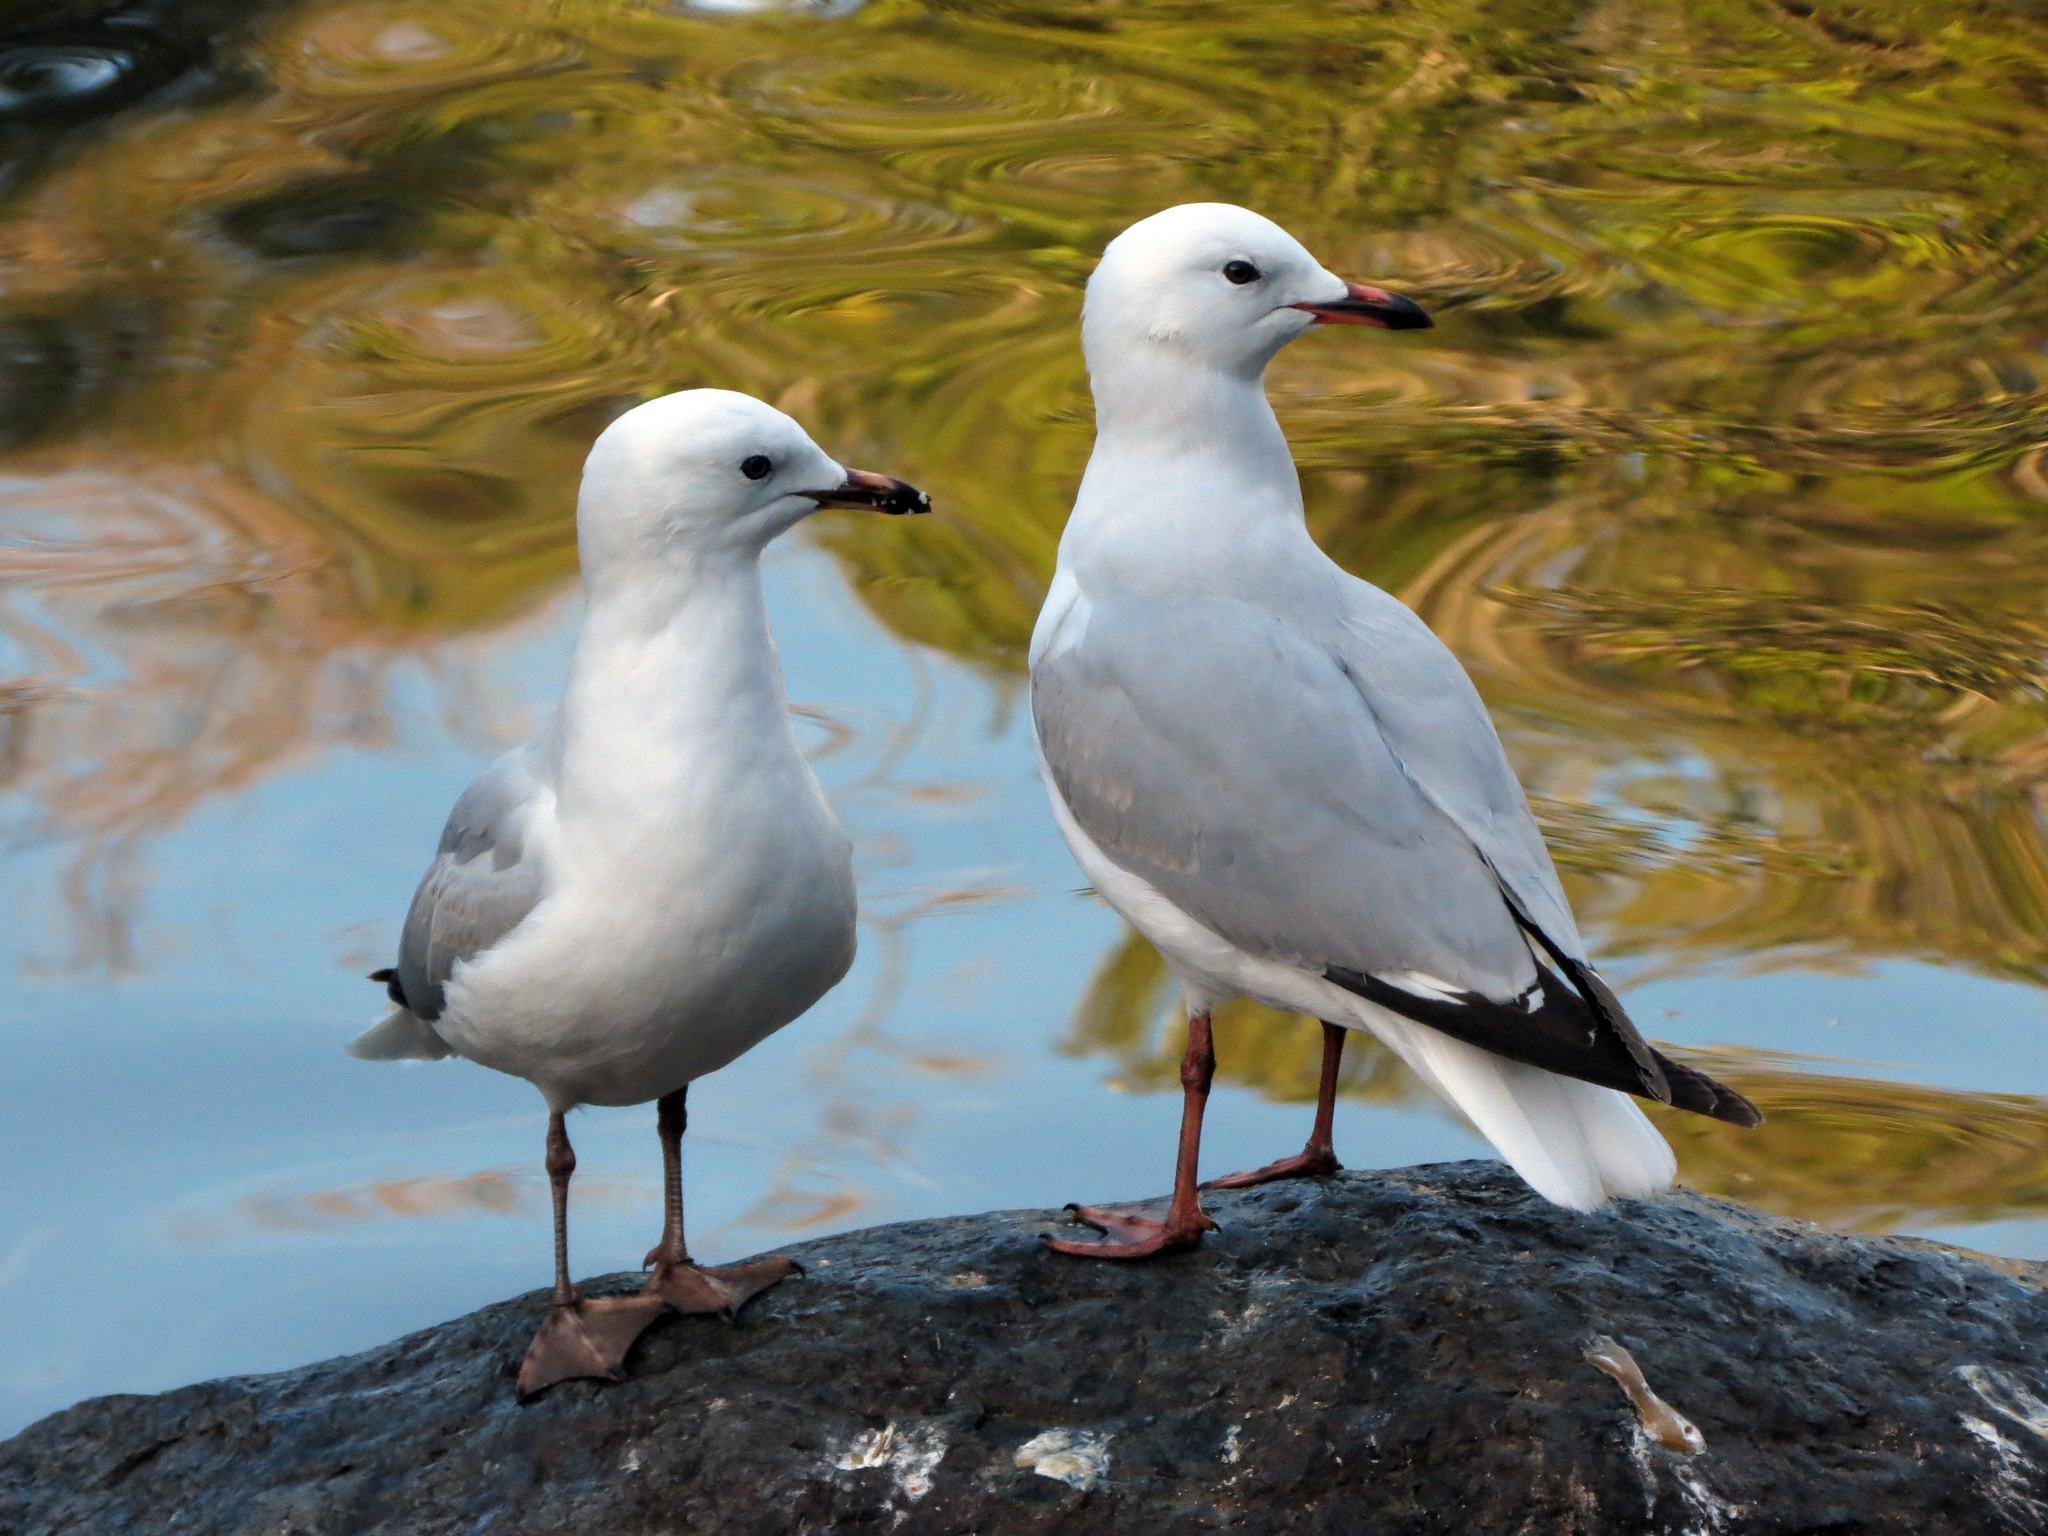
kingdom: Animalia
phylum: Chordata
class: Aves
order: Charadriiformes
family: Laridae
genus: Chroicocephalus
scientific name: Chroicocephalus novaehollandiae
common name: Silver gull
